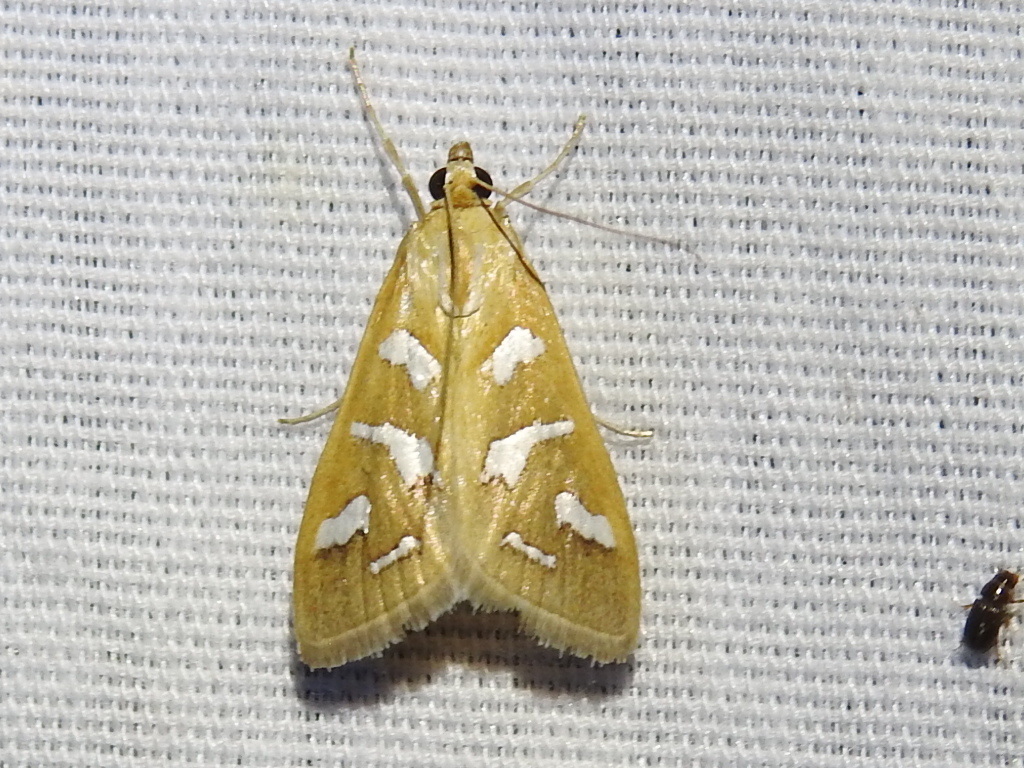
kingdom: Animalia
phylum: Arthropoda
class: Insecta
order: Lepidoptera
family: Crambidae
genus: Diastictis
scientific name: Diastictis fracturalis
